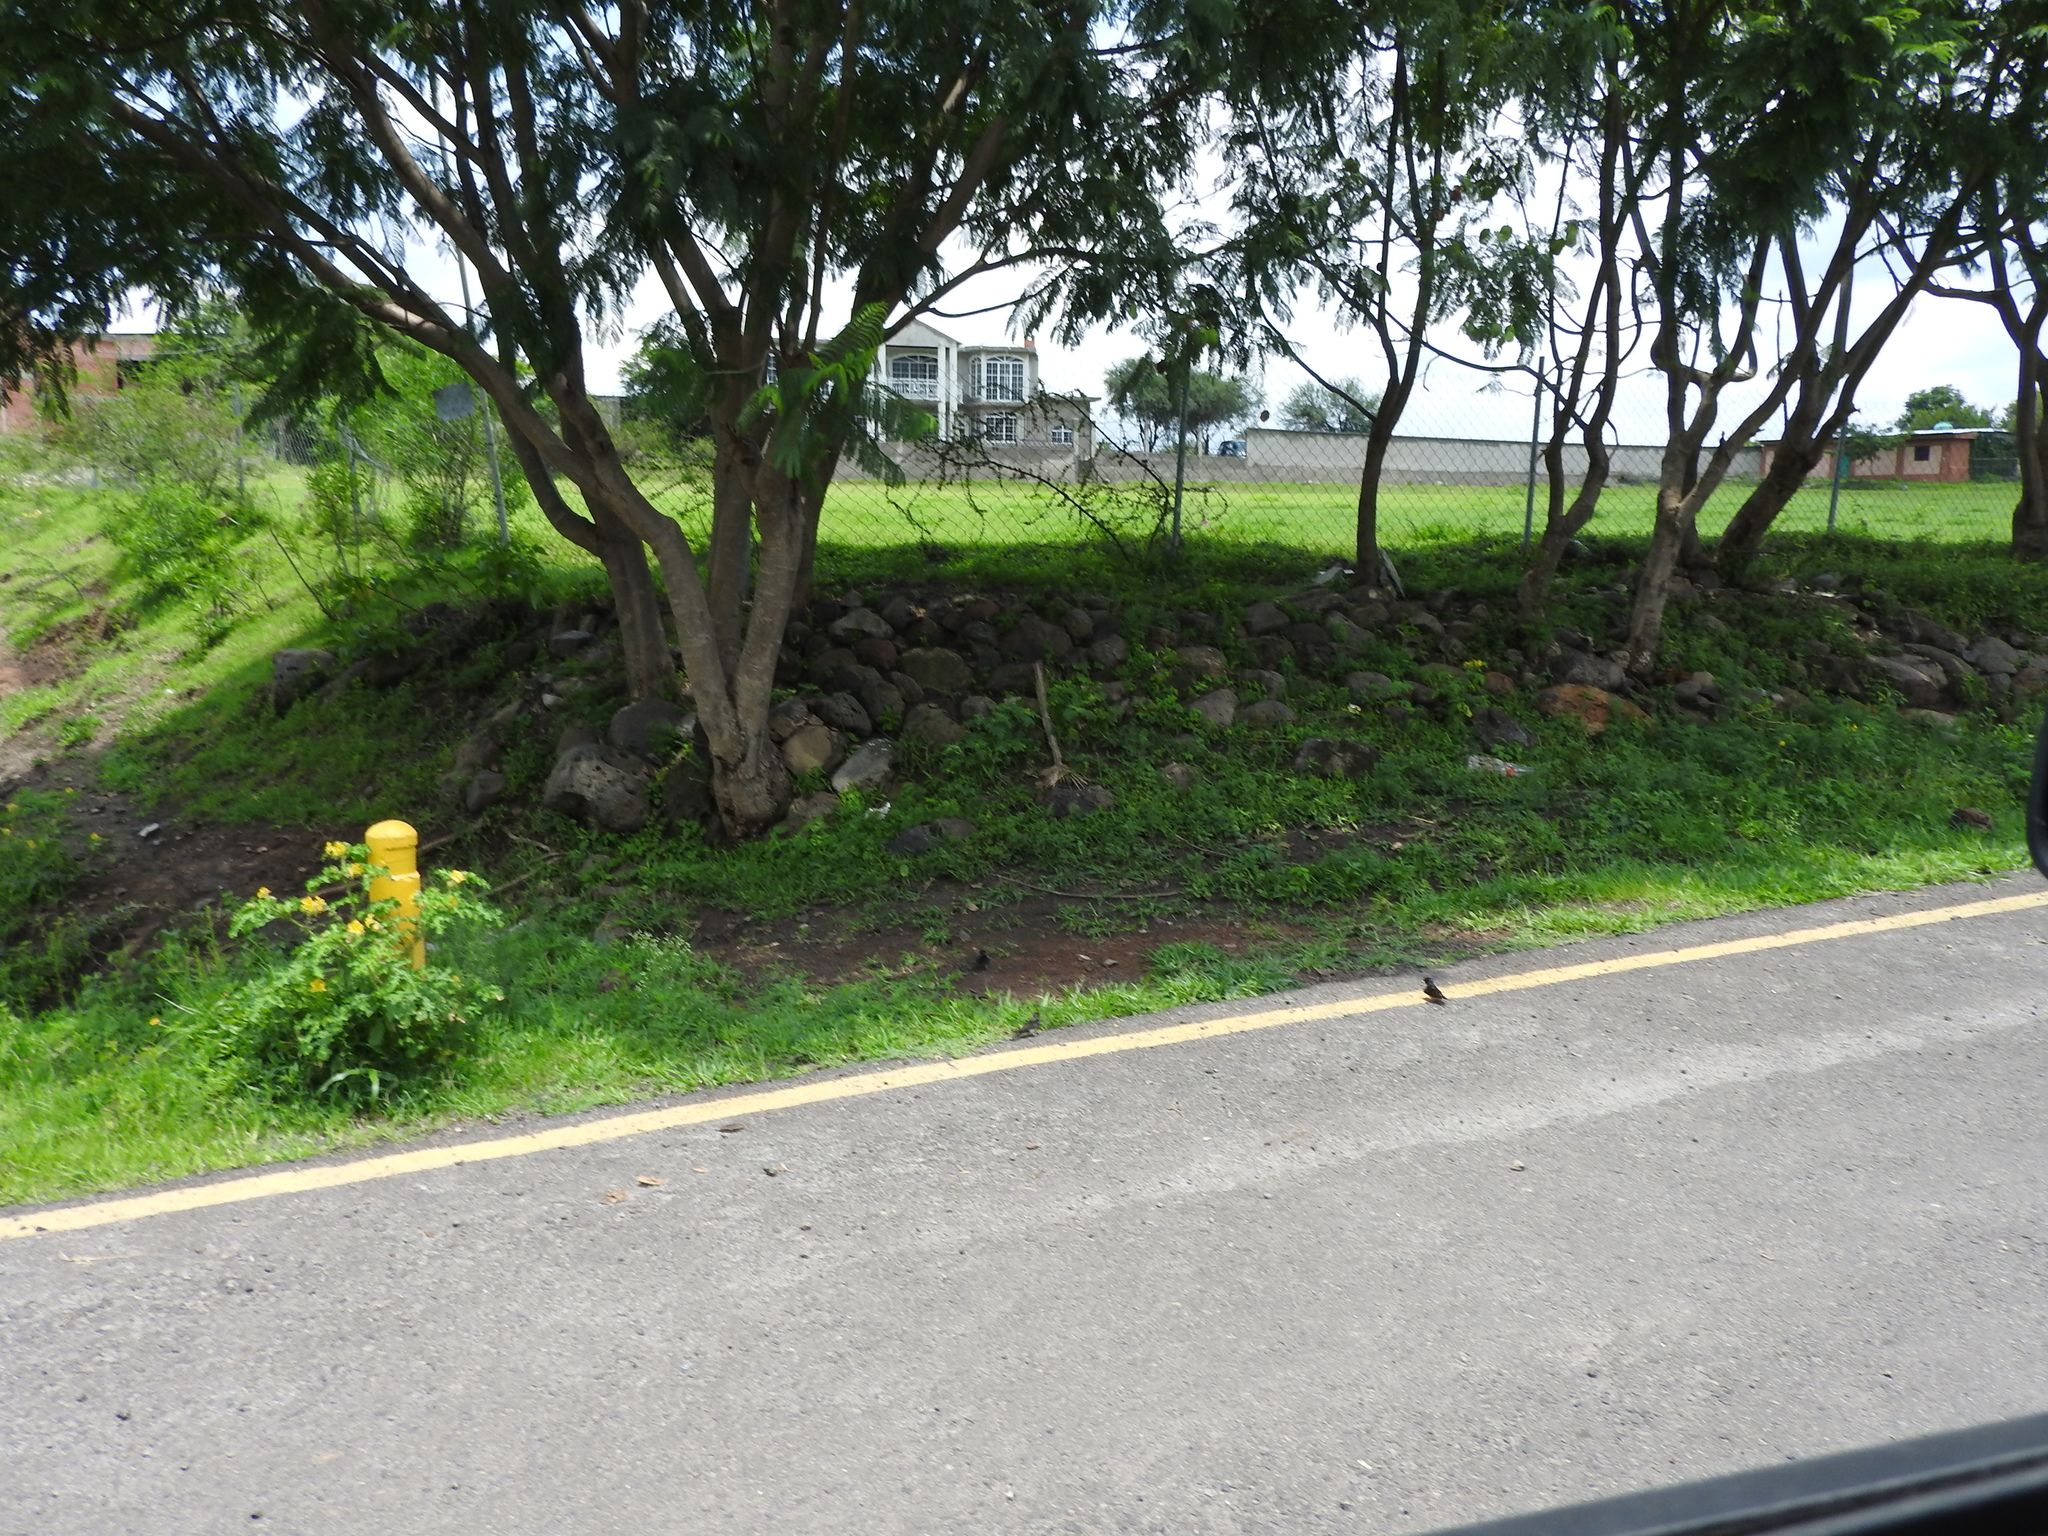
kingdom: Animalia
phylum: Chordata
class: Aves
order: Passeriformes
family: Hirundinidae
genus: Hirundo
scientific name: Hirundo rustica
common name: Barn swallow
